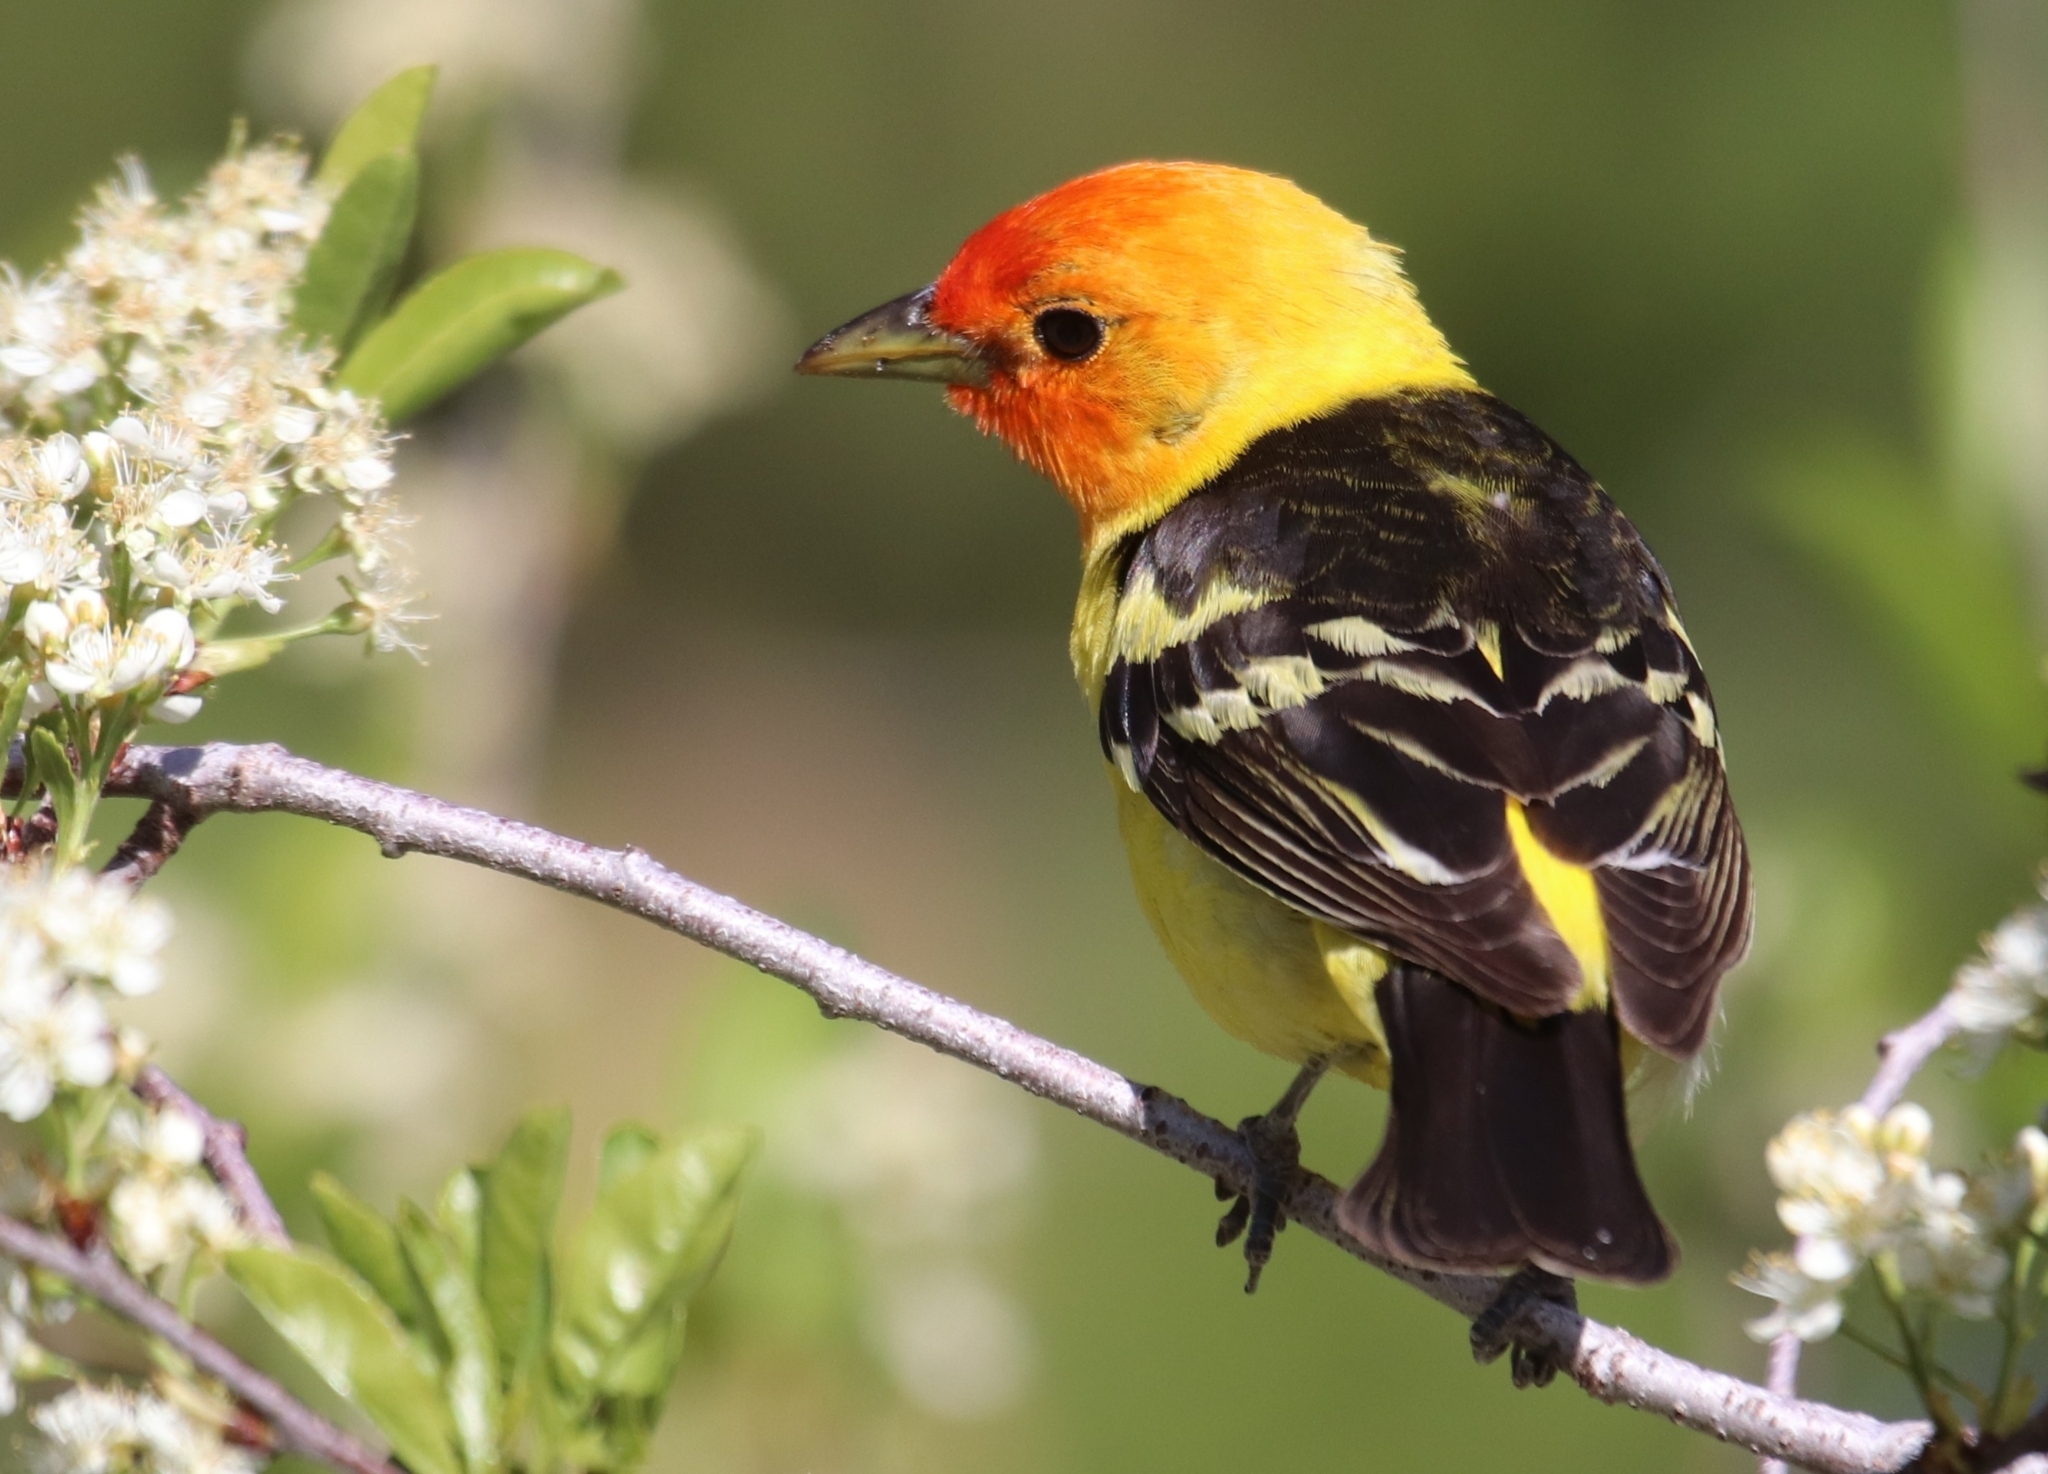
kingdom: Animalia
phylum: Chordata
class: Aves
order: Passeriformes
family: Cardinalidae
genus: Piranga
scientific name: Piranga ludoviciana
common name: Western tanager
